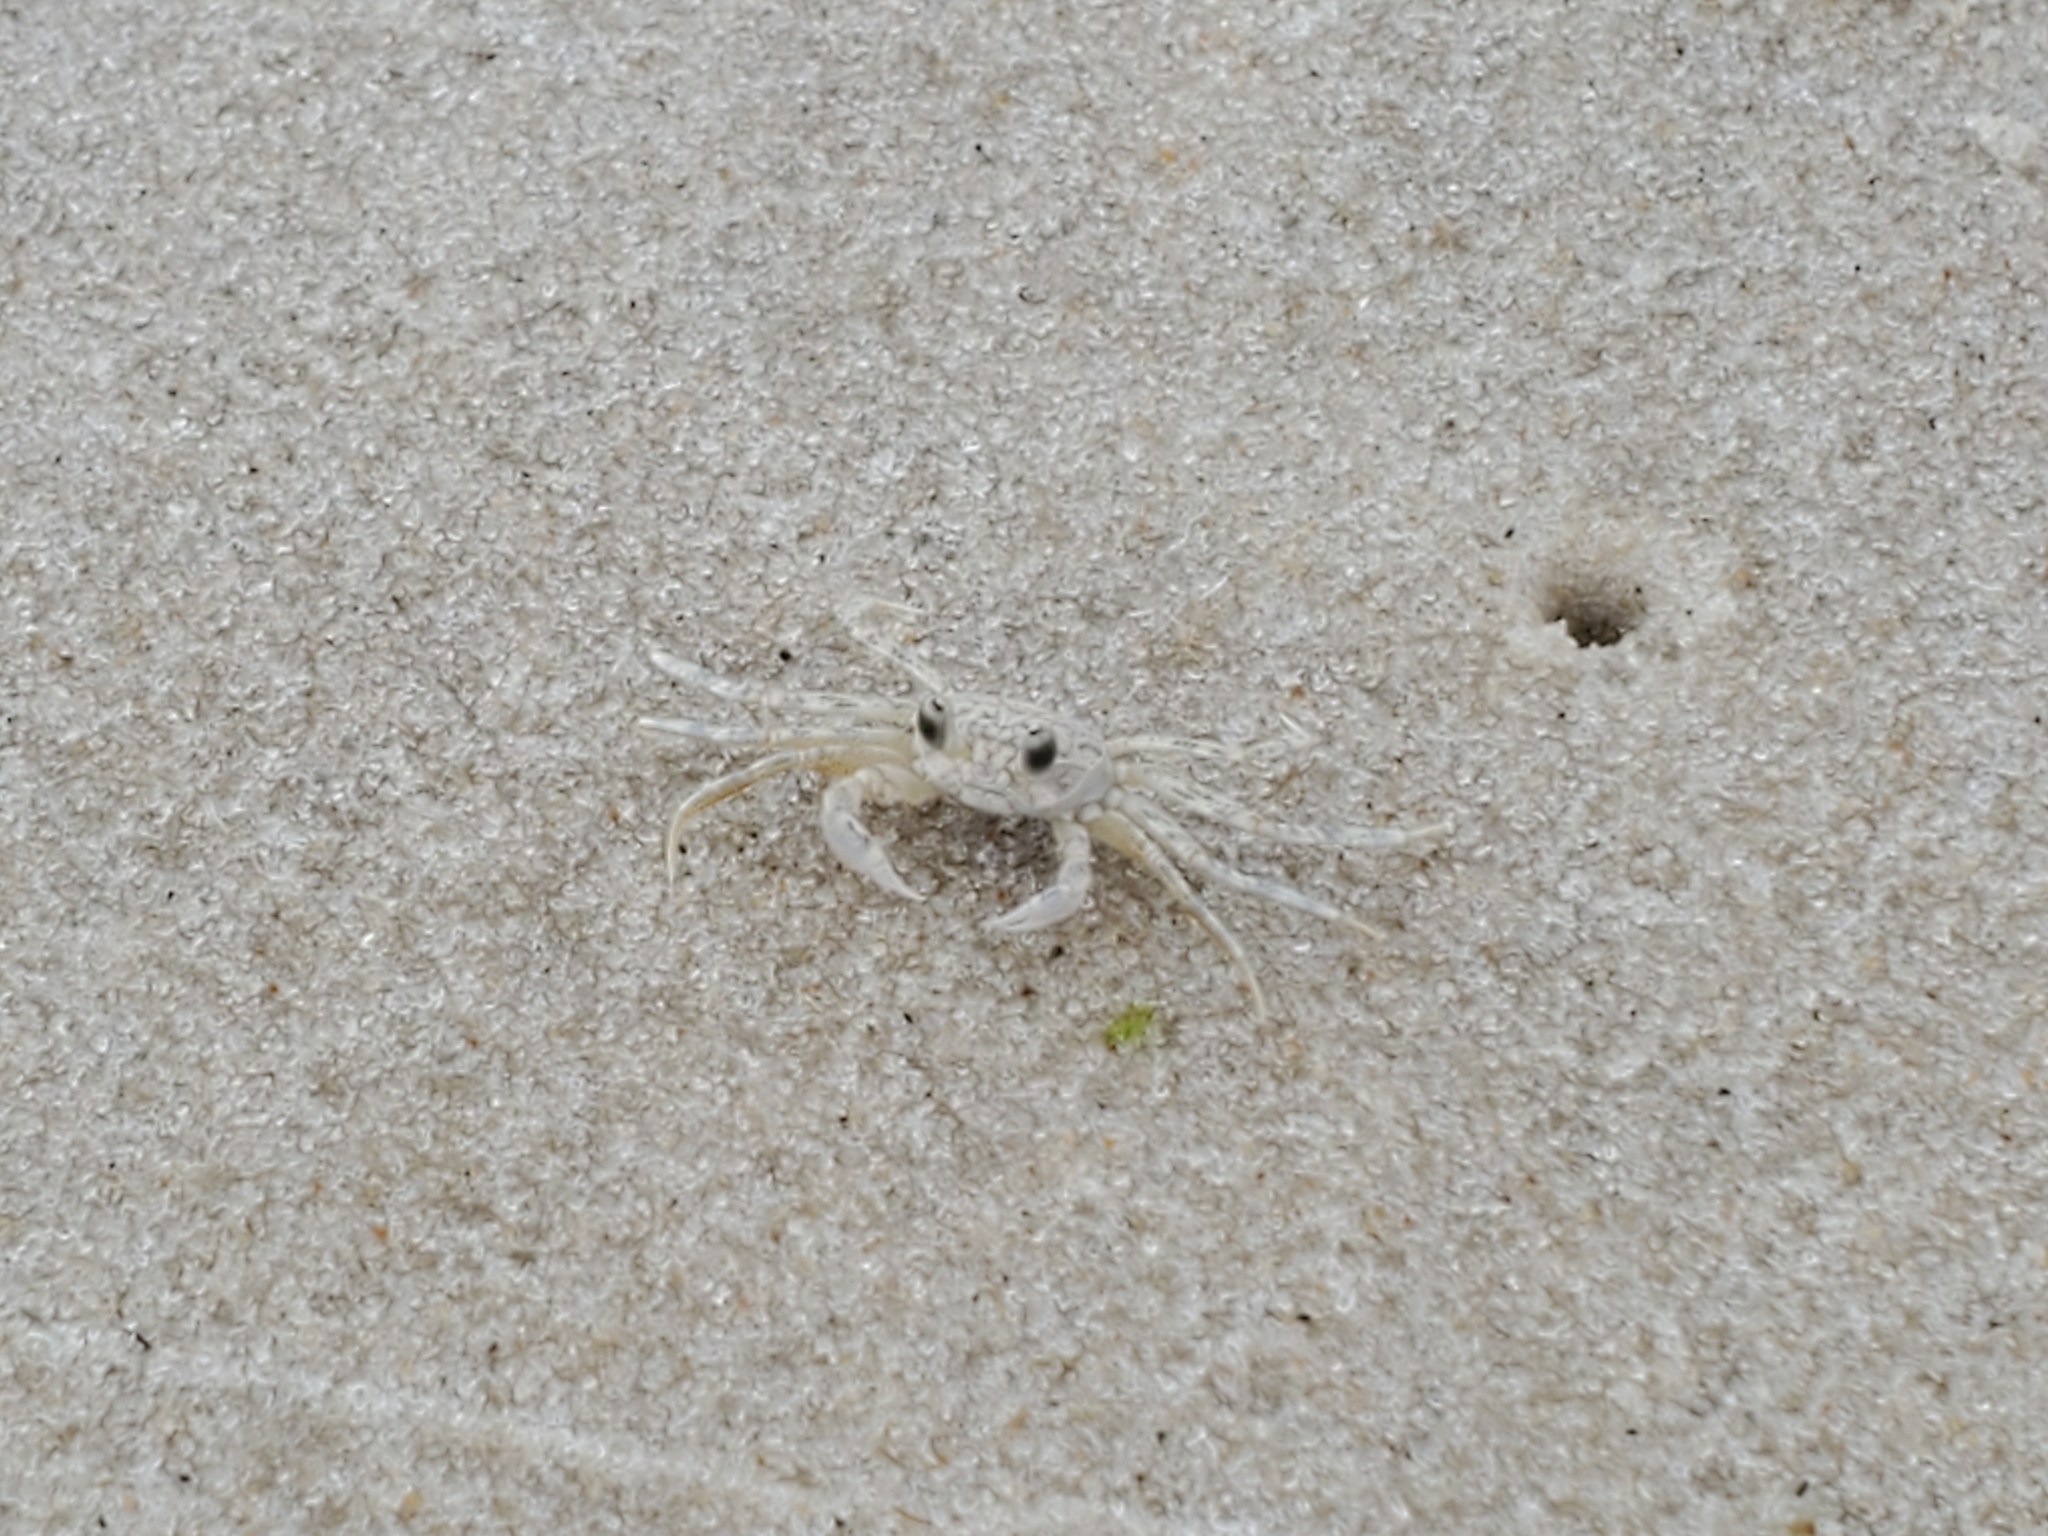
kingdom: Animalia
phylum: Arthropoda
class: Malacostraca
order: Decapoda
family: Ocypodidae
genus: Ocypode
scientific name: Ocypode quadrata
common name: Ghost crab
